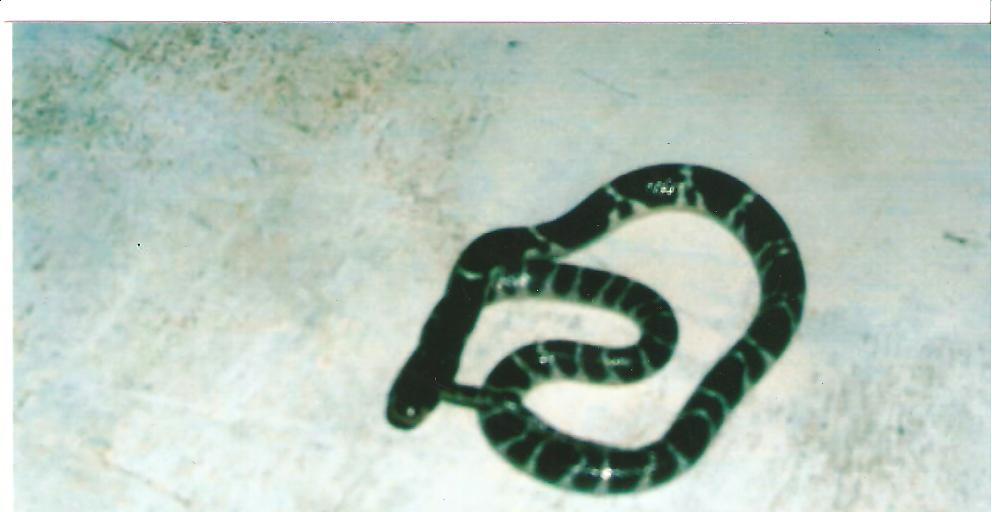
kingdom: Animalia
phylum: Chordata
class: Squamata
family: Elapidae
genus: Bungarus
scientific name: Bungarus caeruleus
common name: Common krait
